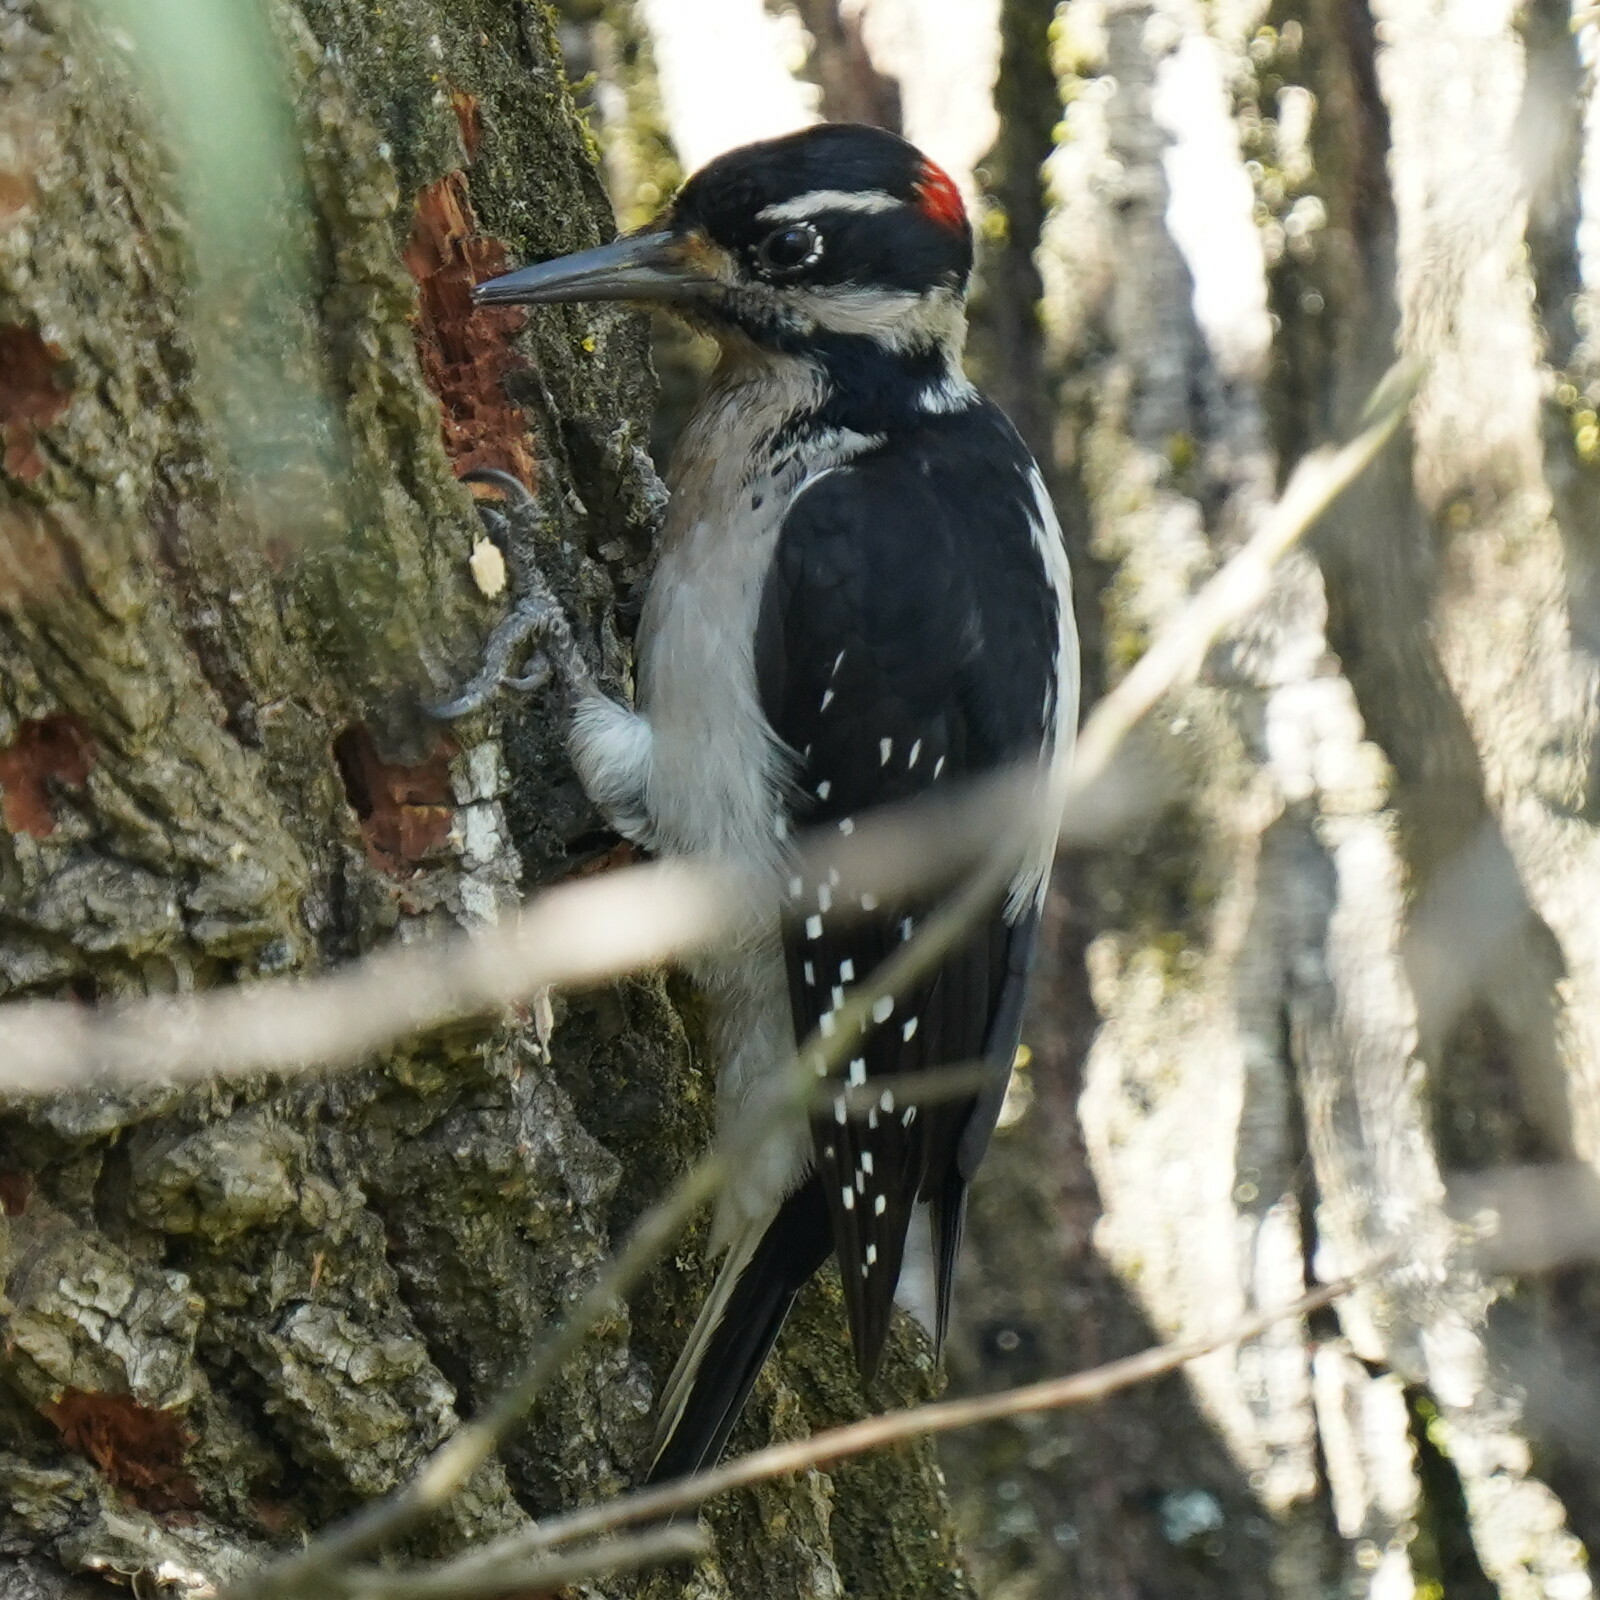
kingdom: Animalia
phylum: Chordata
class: Aves
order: Piciformes
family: Picidae
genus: Leuconotopicus
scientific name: Leuconotopicus villosus
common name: Hairy woodpecker
